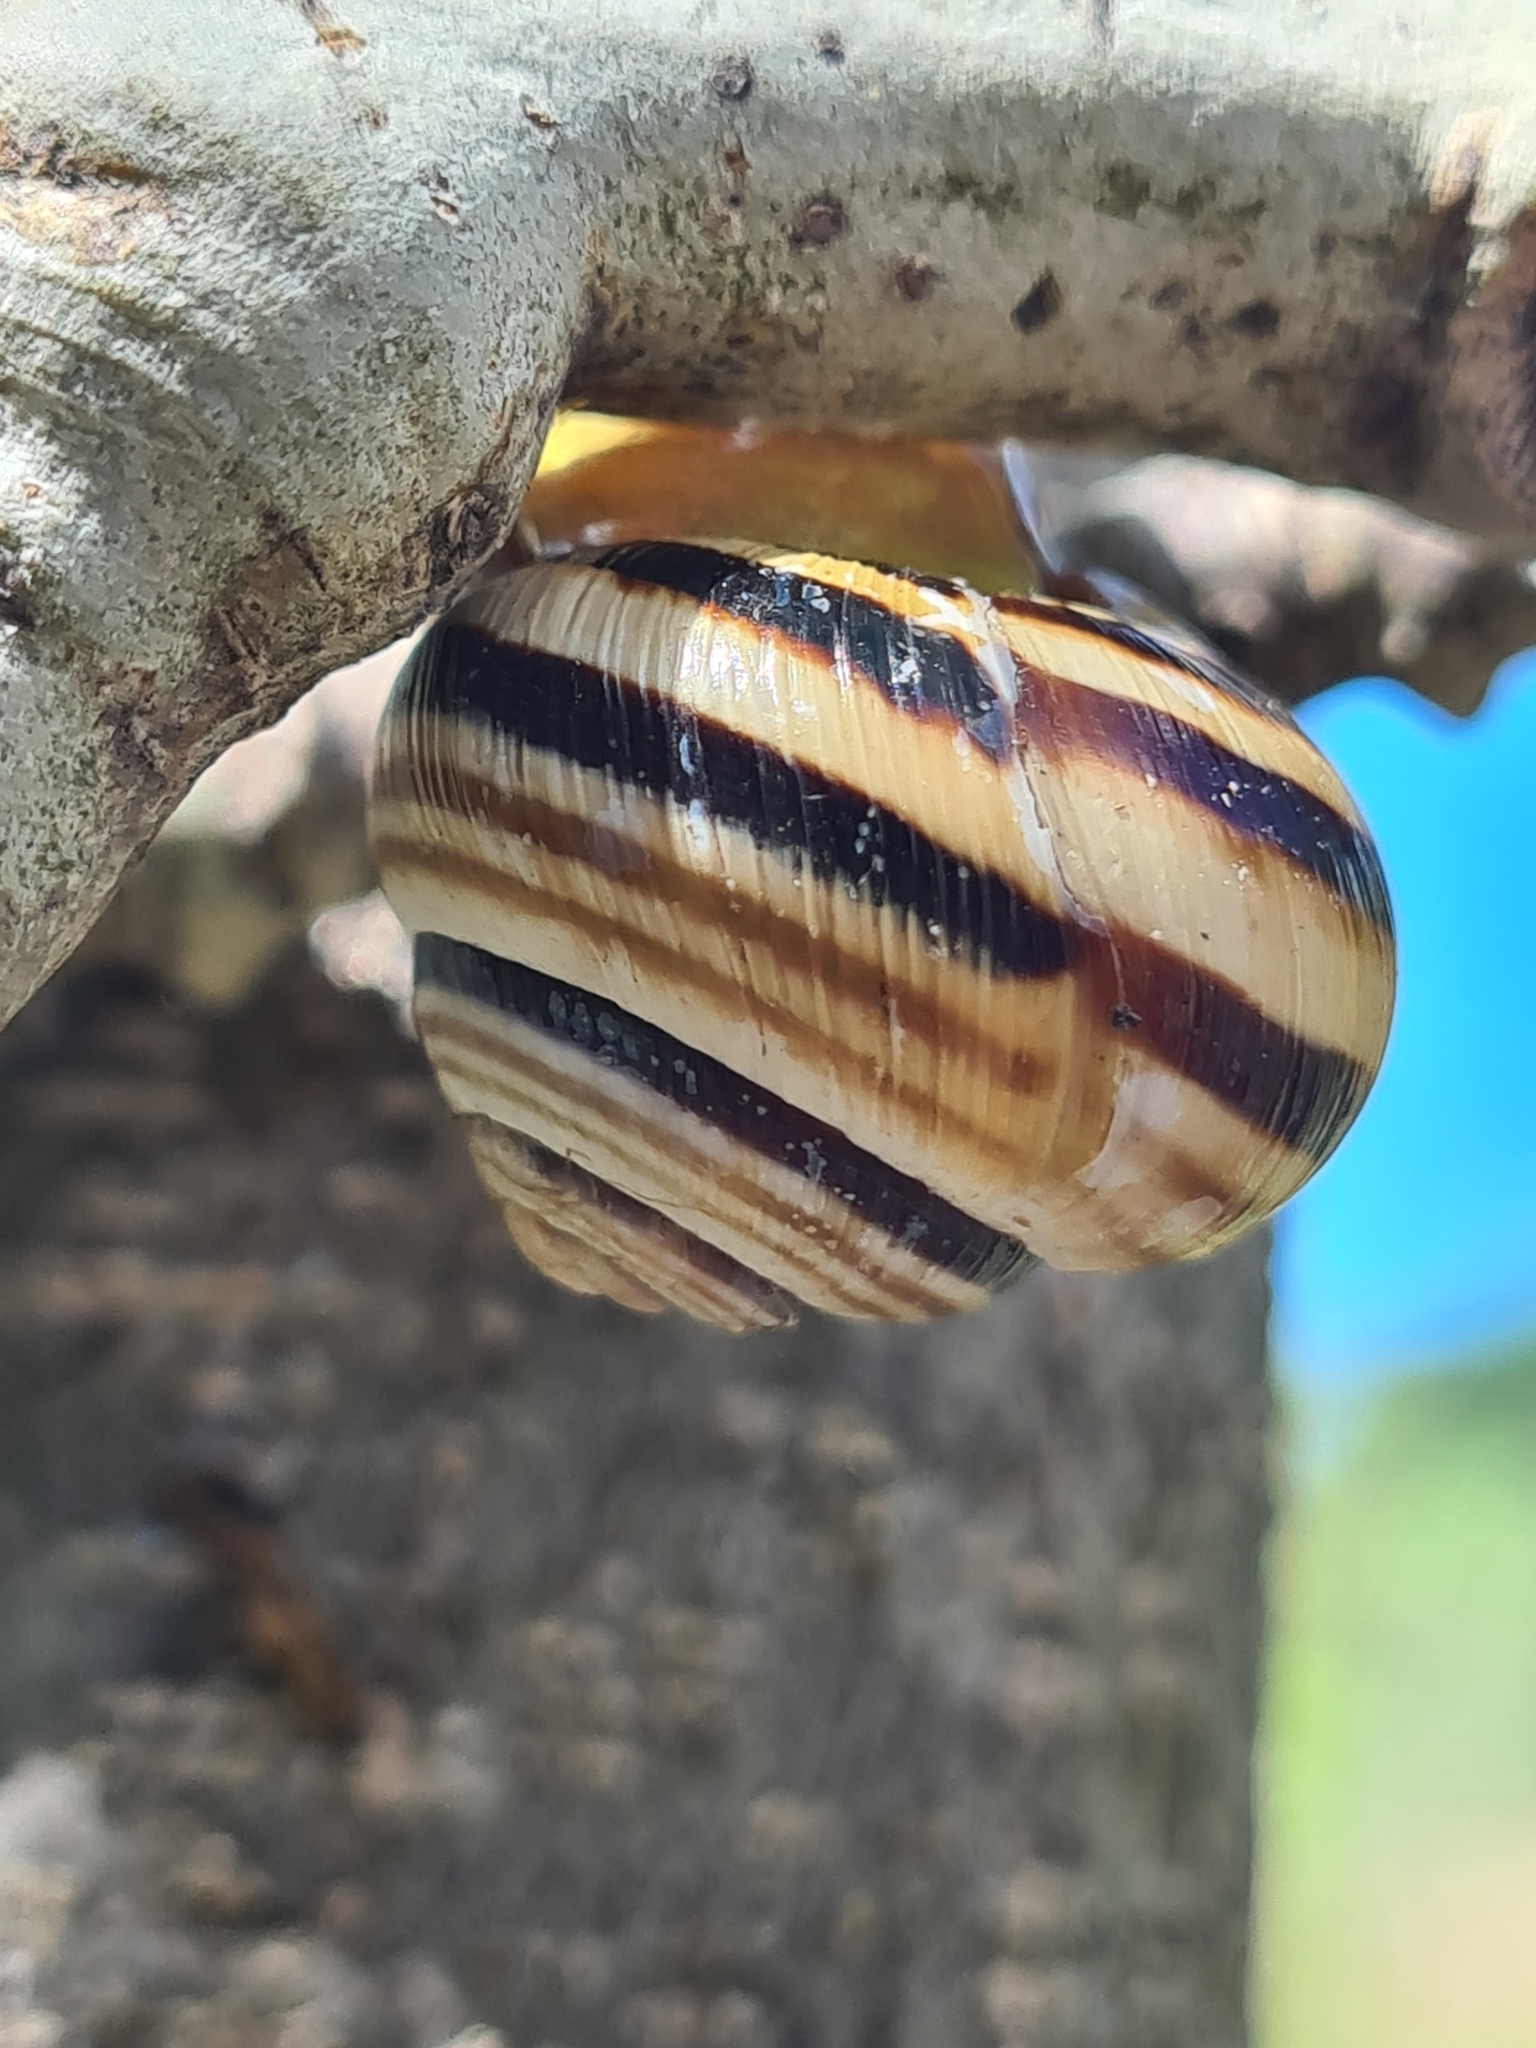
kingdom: Animalia
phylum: Mollusca
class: Gastropoda
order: Stylommatophora
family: Helicidae
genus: Caucasotachea
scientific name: Caucasotachea vindobonensis
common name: European helicid land snail
